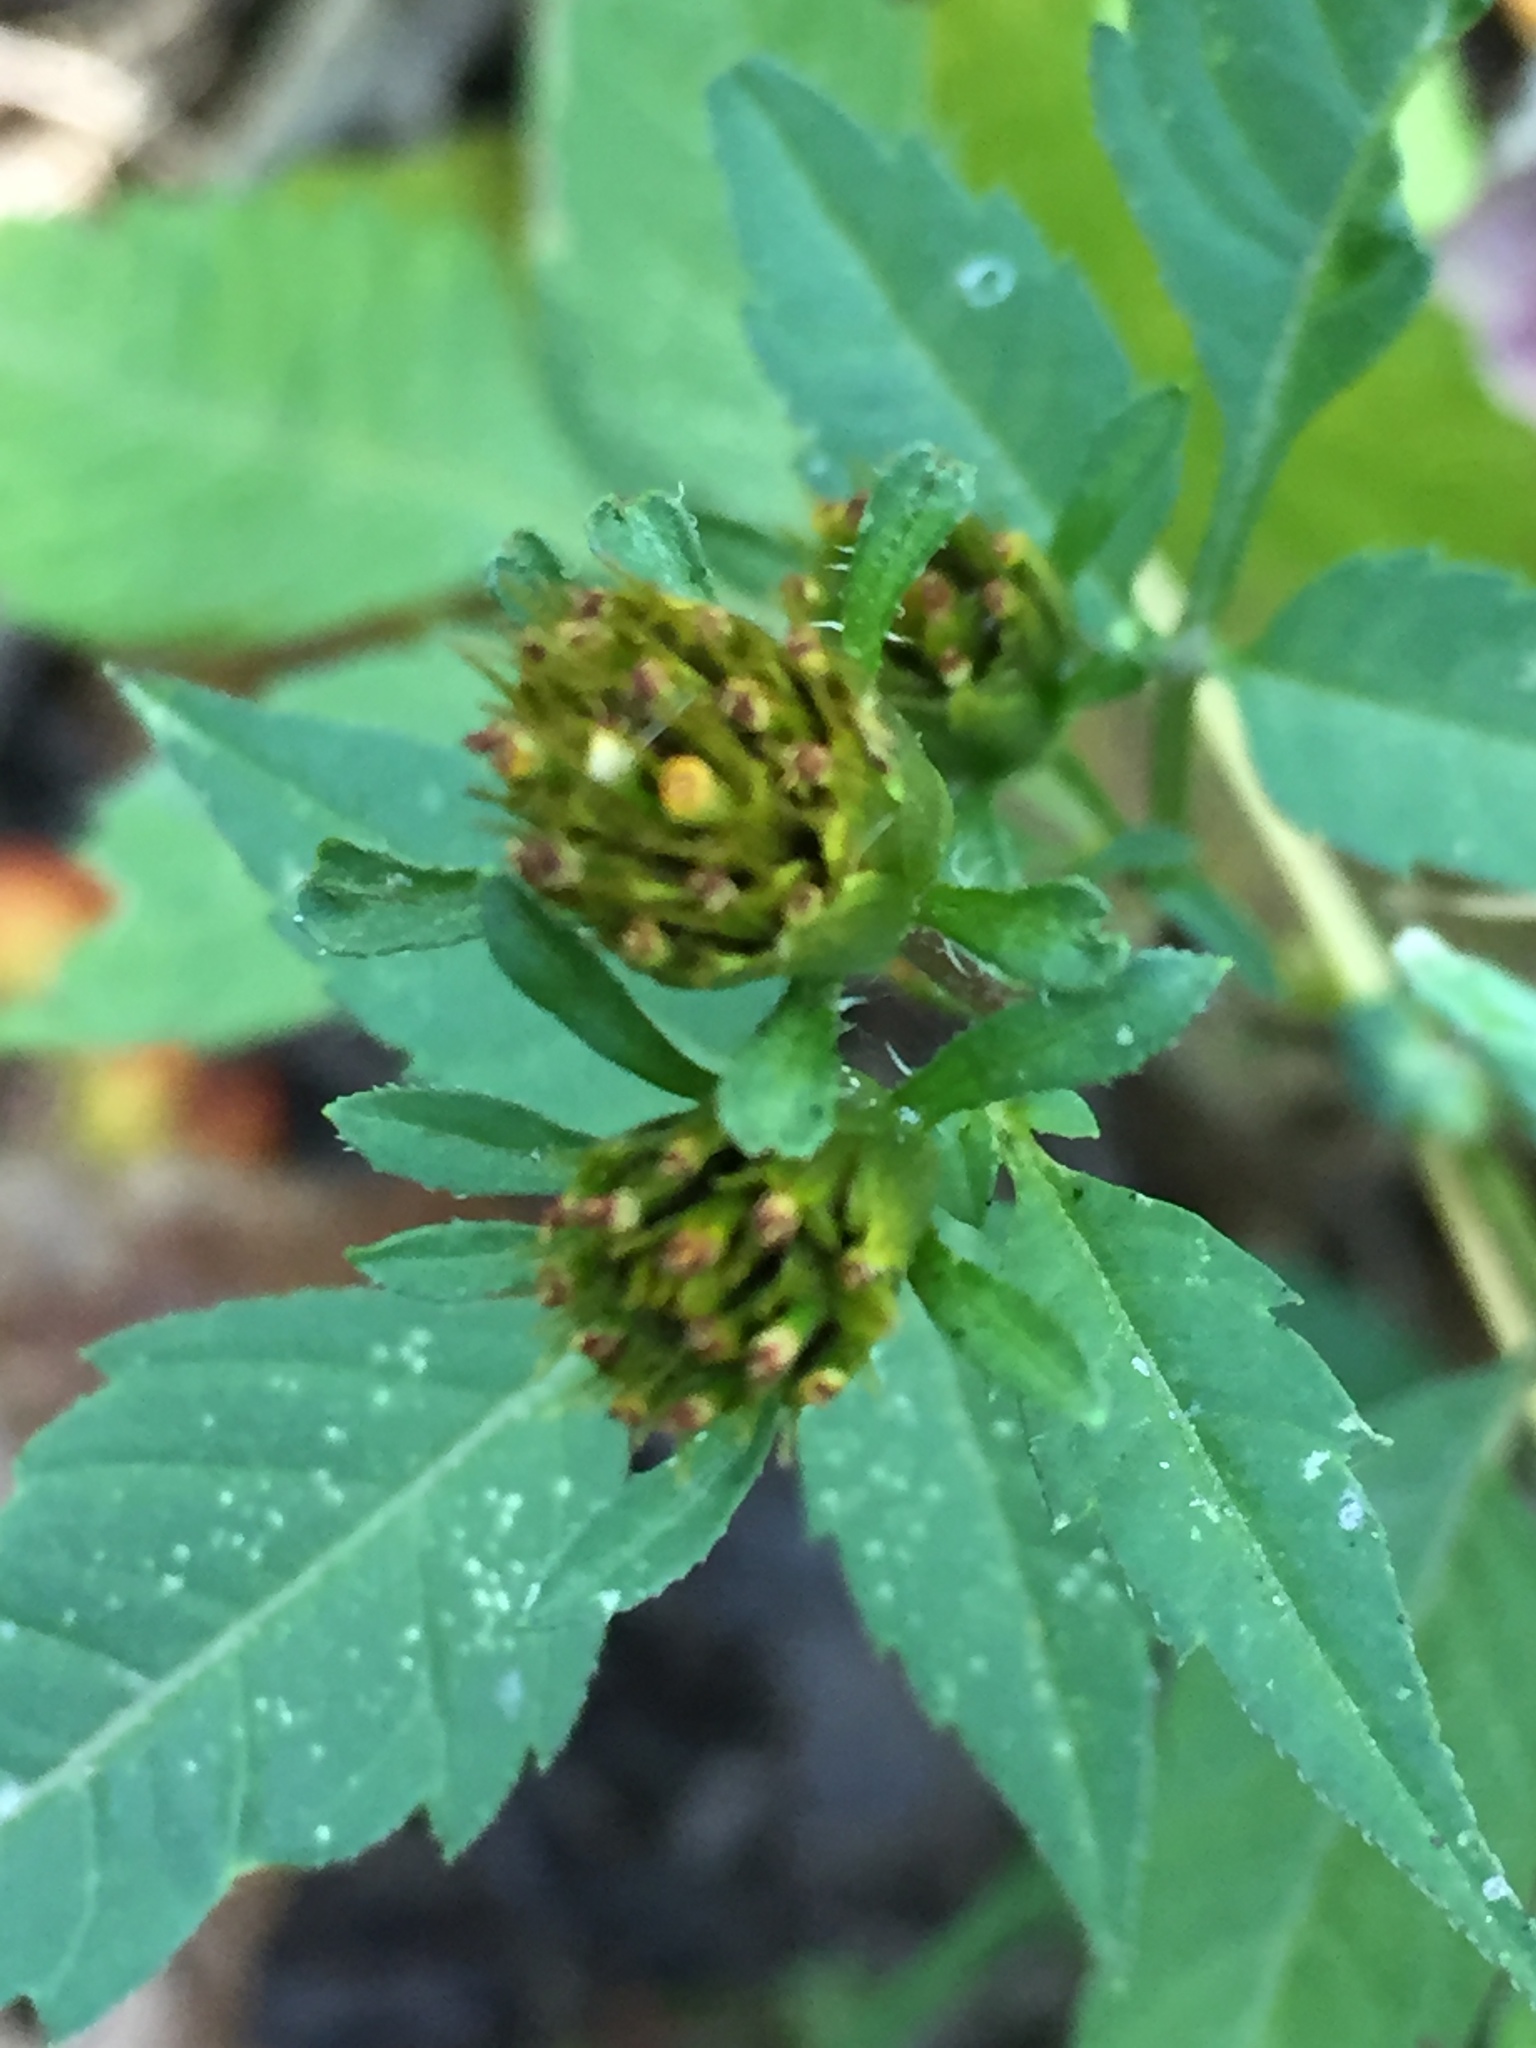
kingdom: Plantae
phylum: Tracheophyta
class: Magnoliopsida
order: Asterales
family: Asteraceae
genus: Bidens
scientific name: Bidens frondosa
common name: Beggarticks
